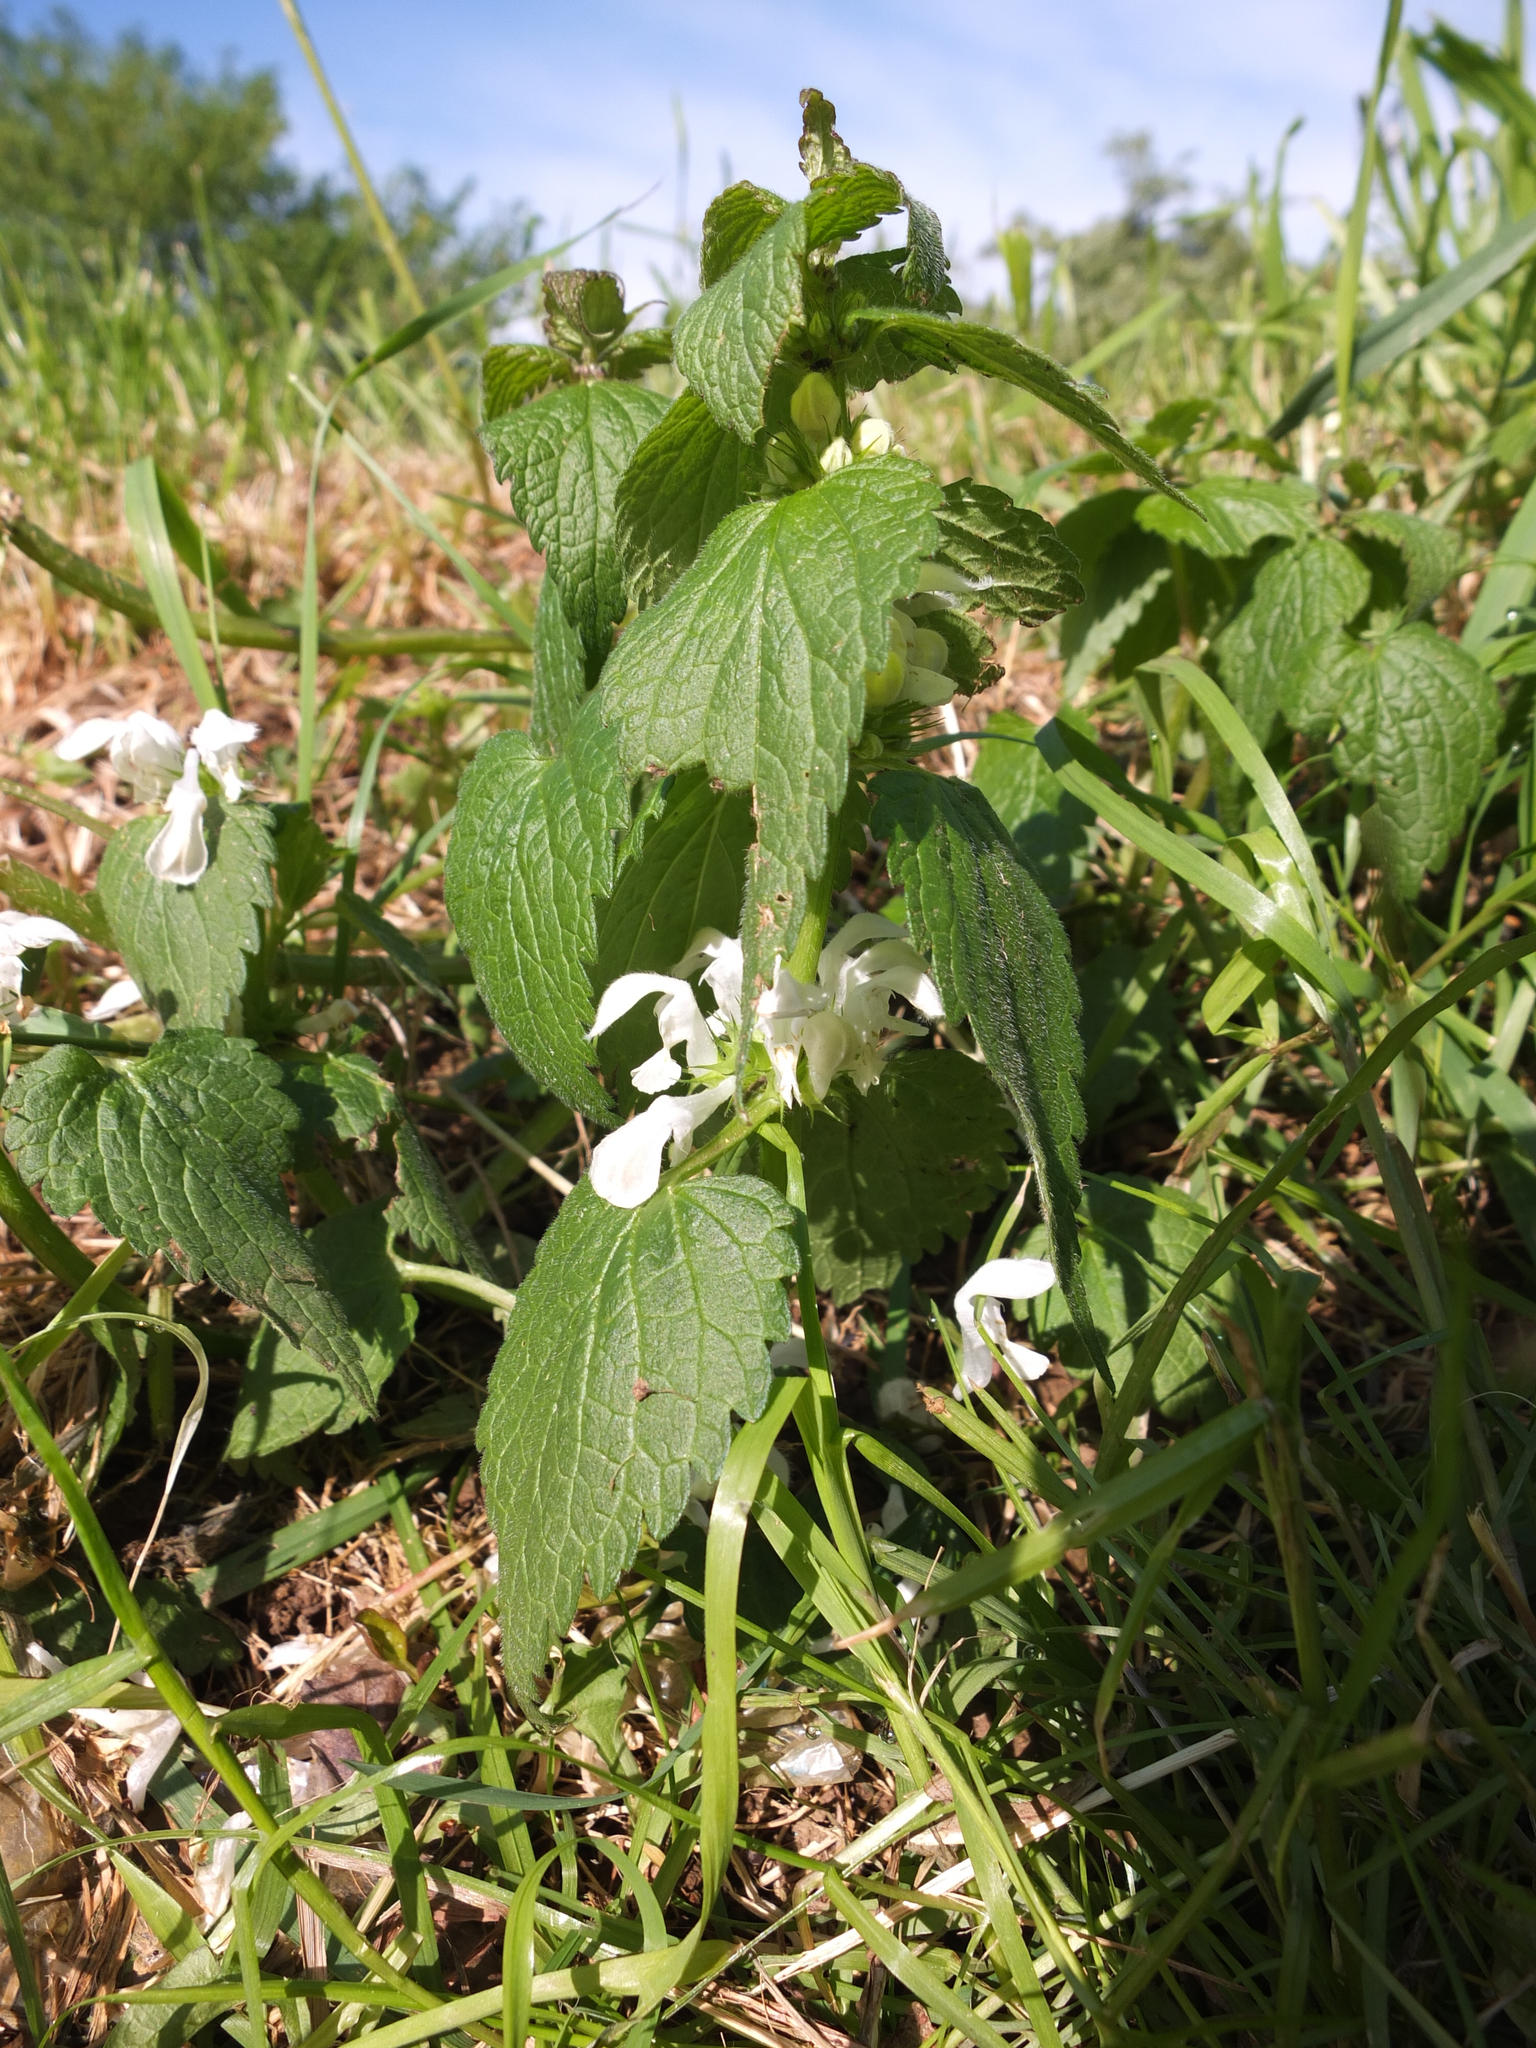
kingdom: Plantae
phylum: Tracheophyta
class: Magnoliopsida
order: Lamiales
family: Lamiaceae
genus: Lamium
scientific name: Lamium album
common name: White dead-nettle
